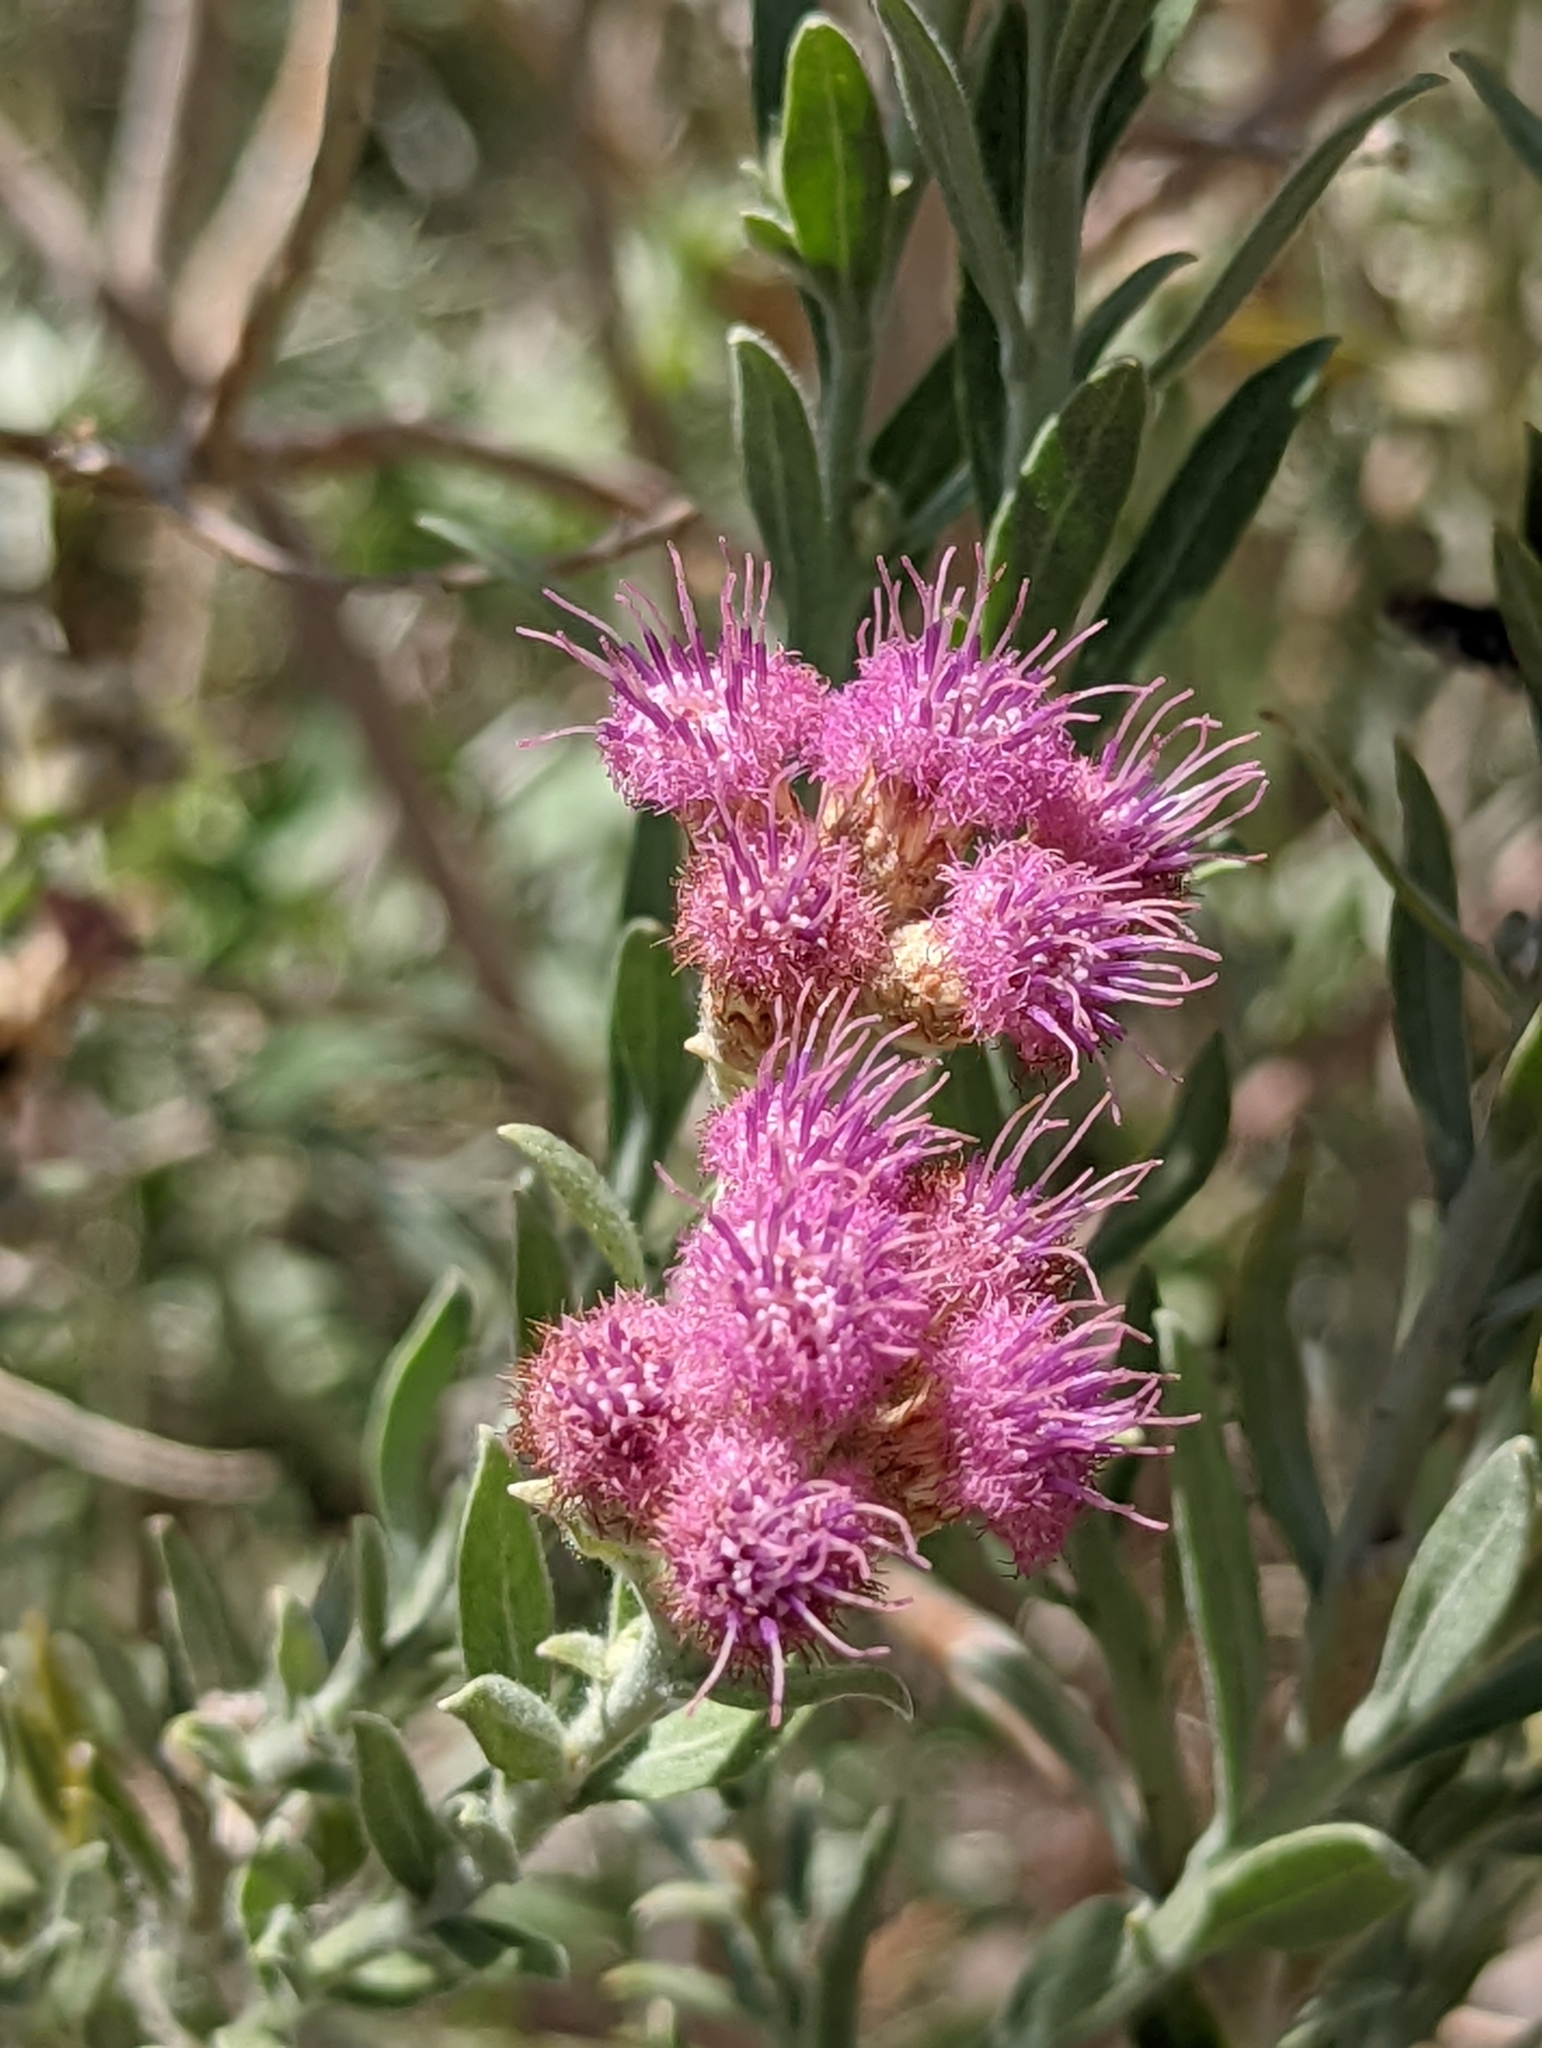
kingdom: Plantae
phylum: Tracheophyta
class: Magnoliopsida
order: Asterales
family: Asteraceae
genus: Pluchea
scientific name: Pluchea sericea
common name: Arrow-weed
